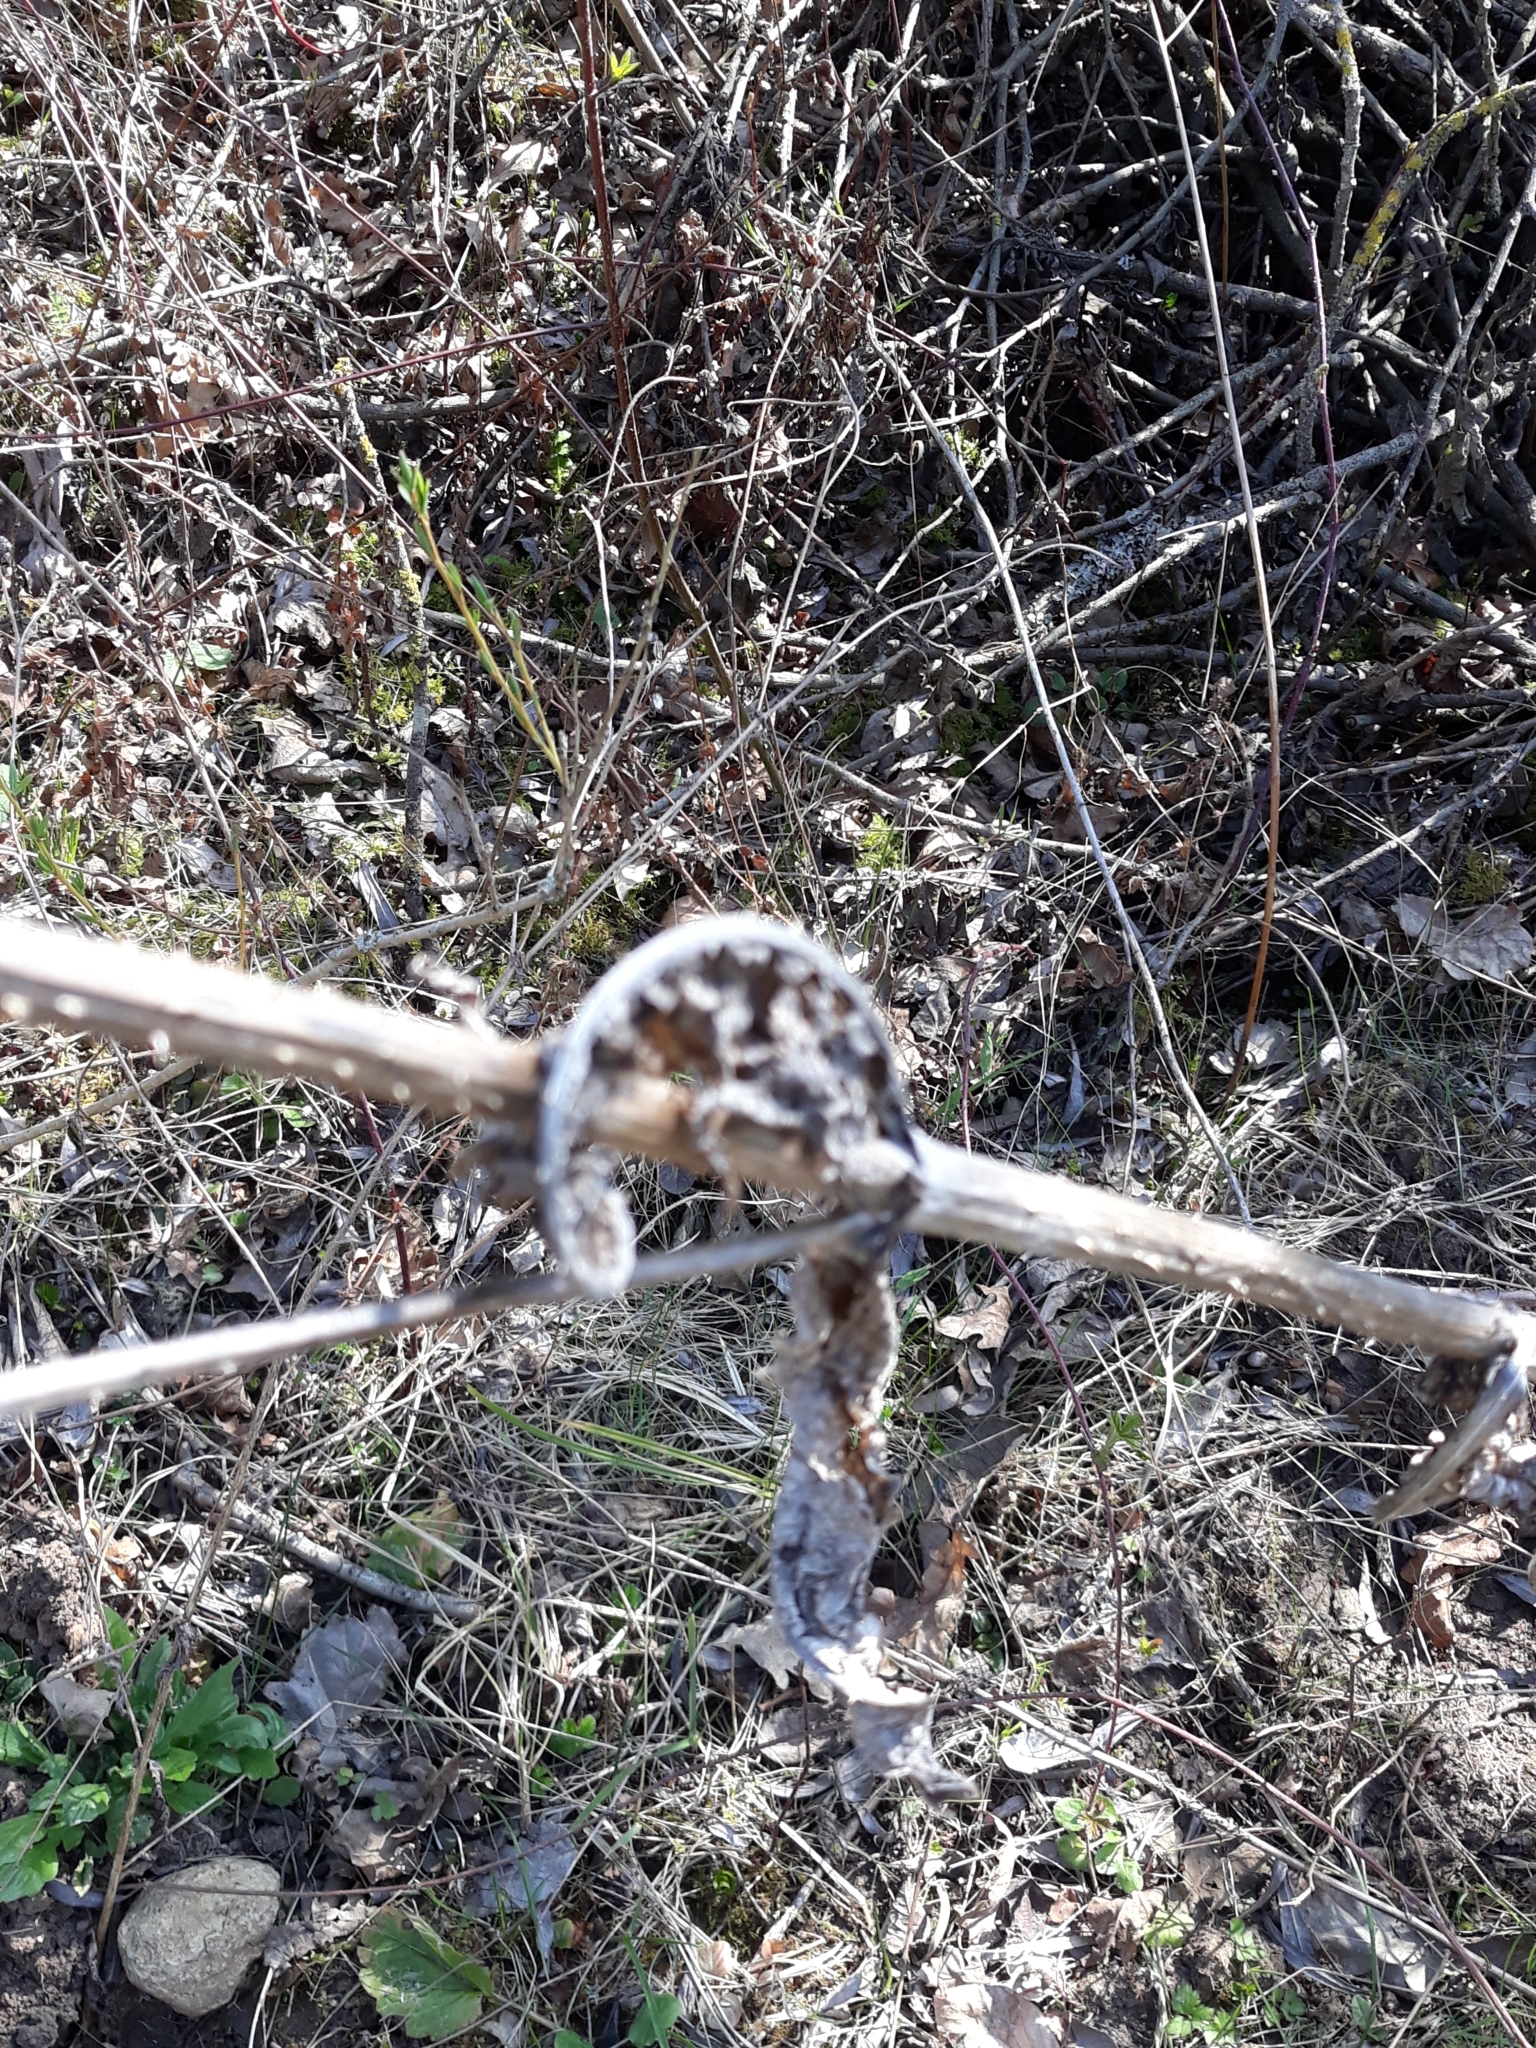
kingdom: Plantae
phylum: Tracheophyta
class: Magnoliopsida
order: Dipsacales
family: Caprifoliaceae
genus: Dipsacus
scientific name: Dipsacus fullonum
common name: Teasel
